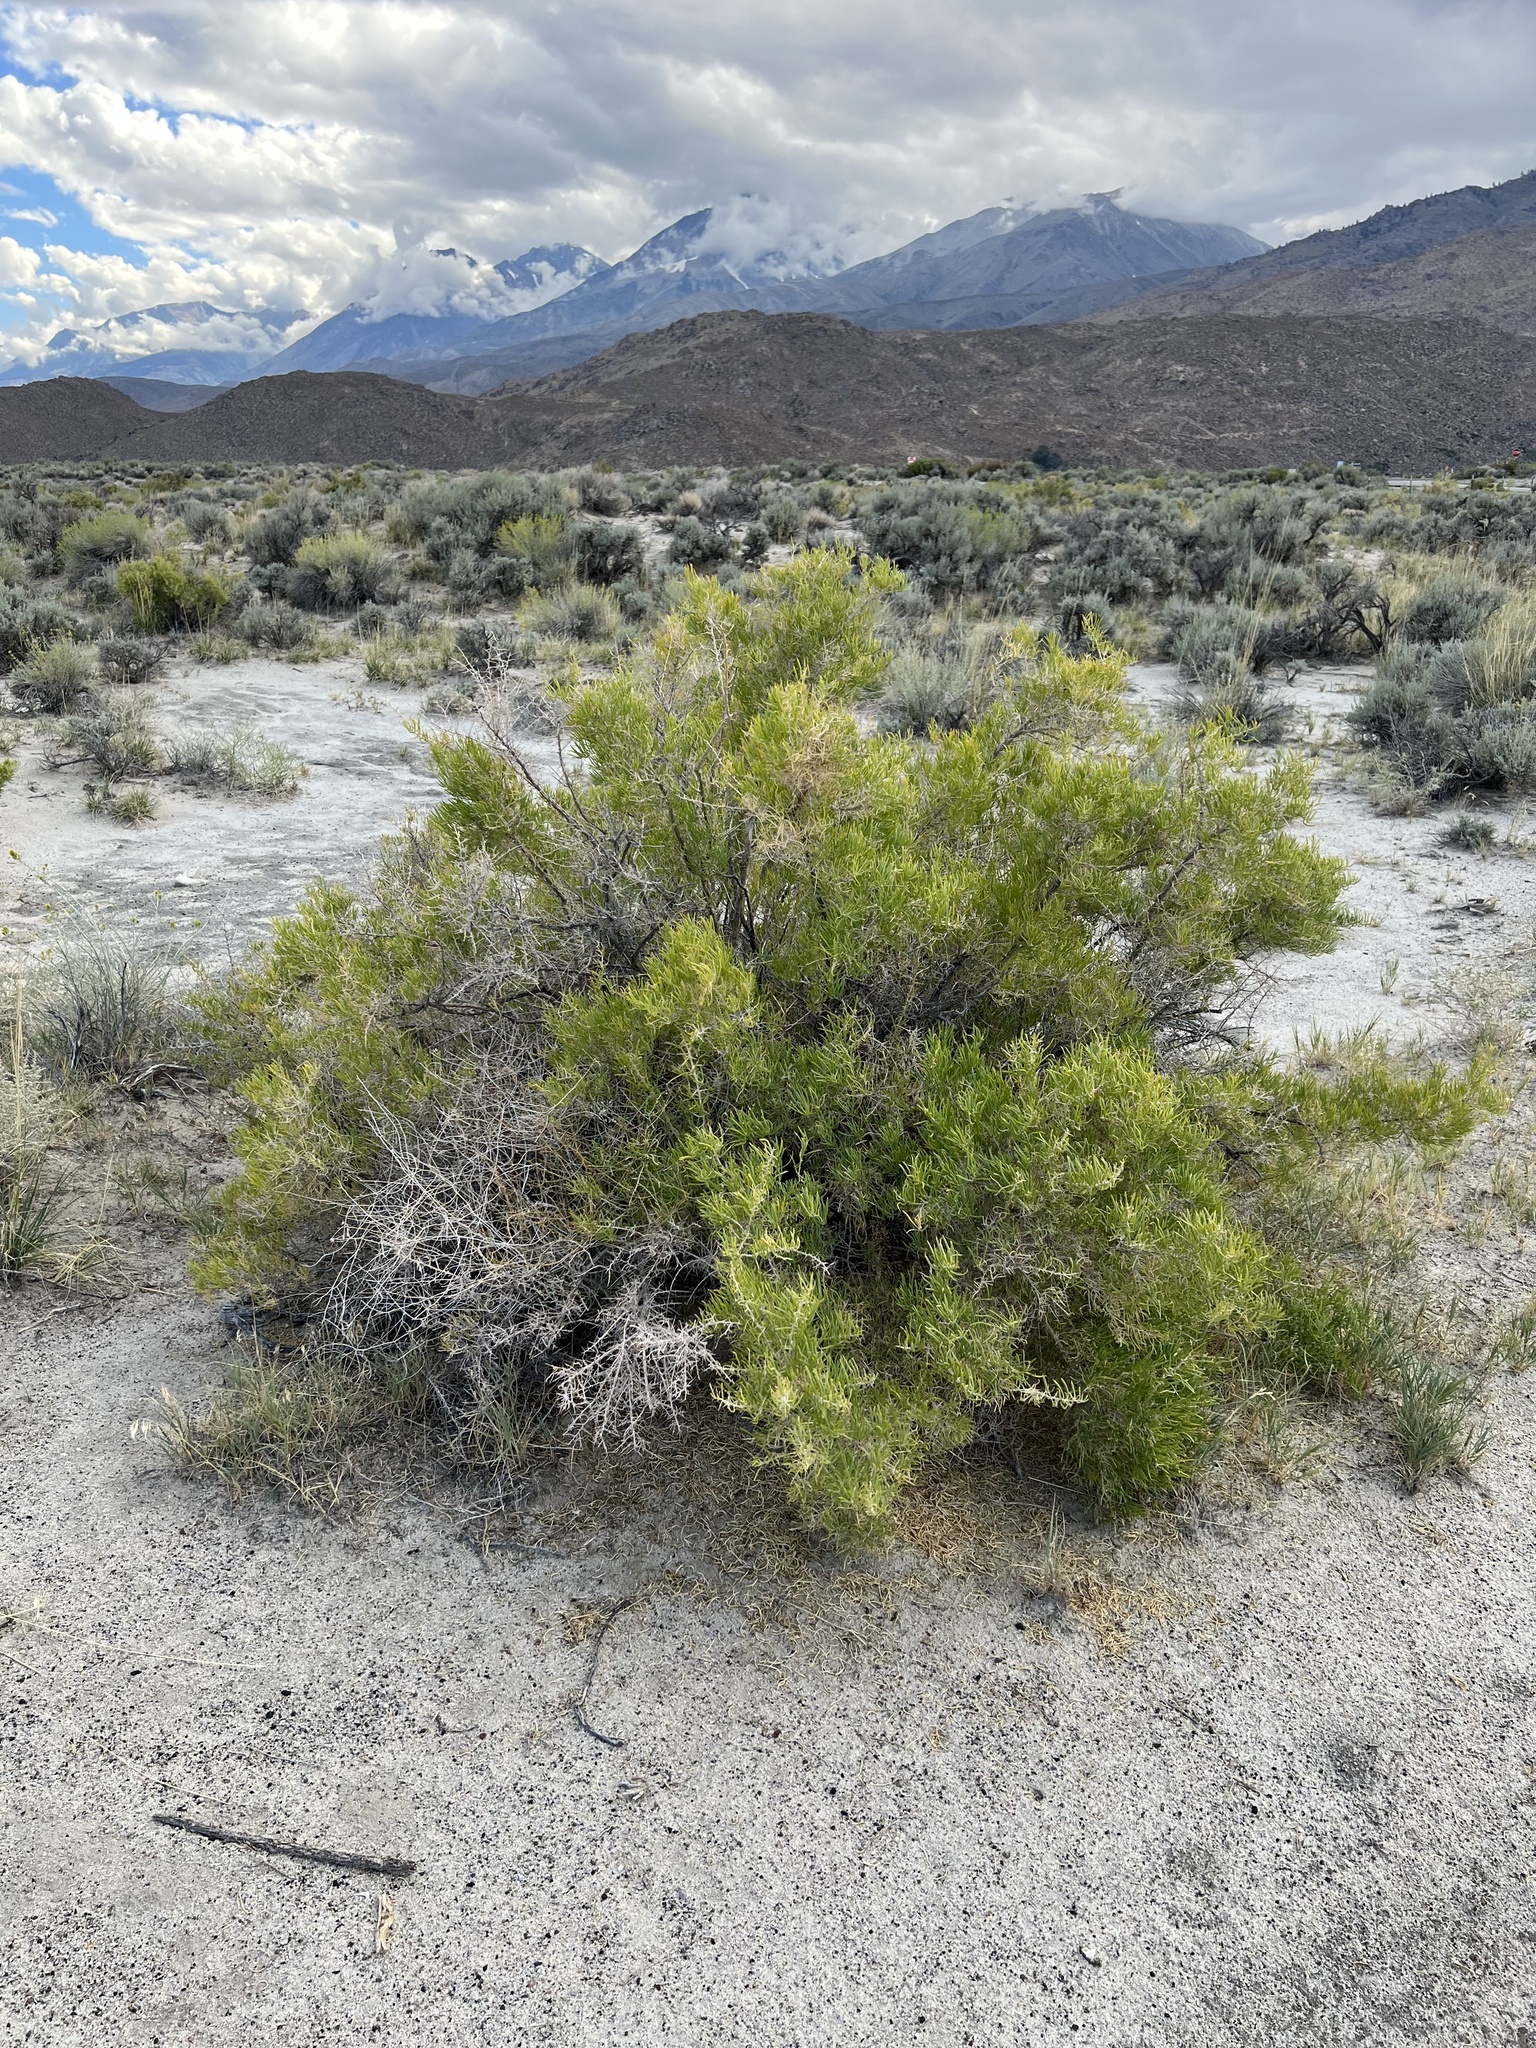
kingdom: Plantae
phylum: Tracheophyta
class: Magnoliopsida
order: Caryophyllales
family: Sarcobataceae
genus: Sarcobatus
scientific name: Sarcobatus vermiculatus
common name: Greasewood
